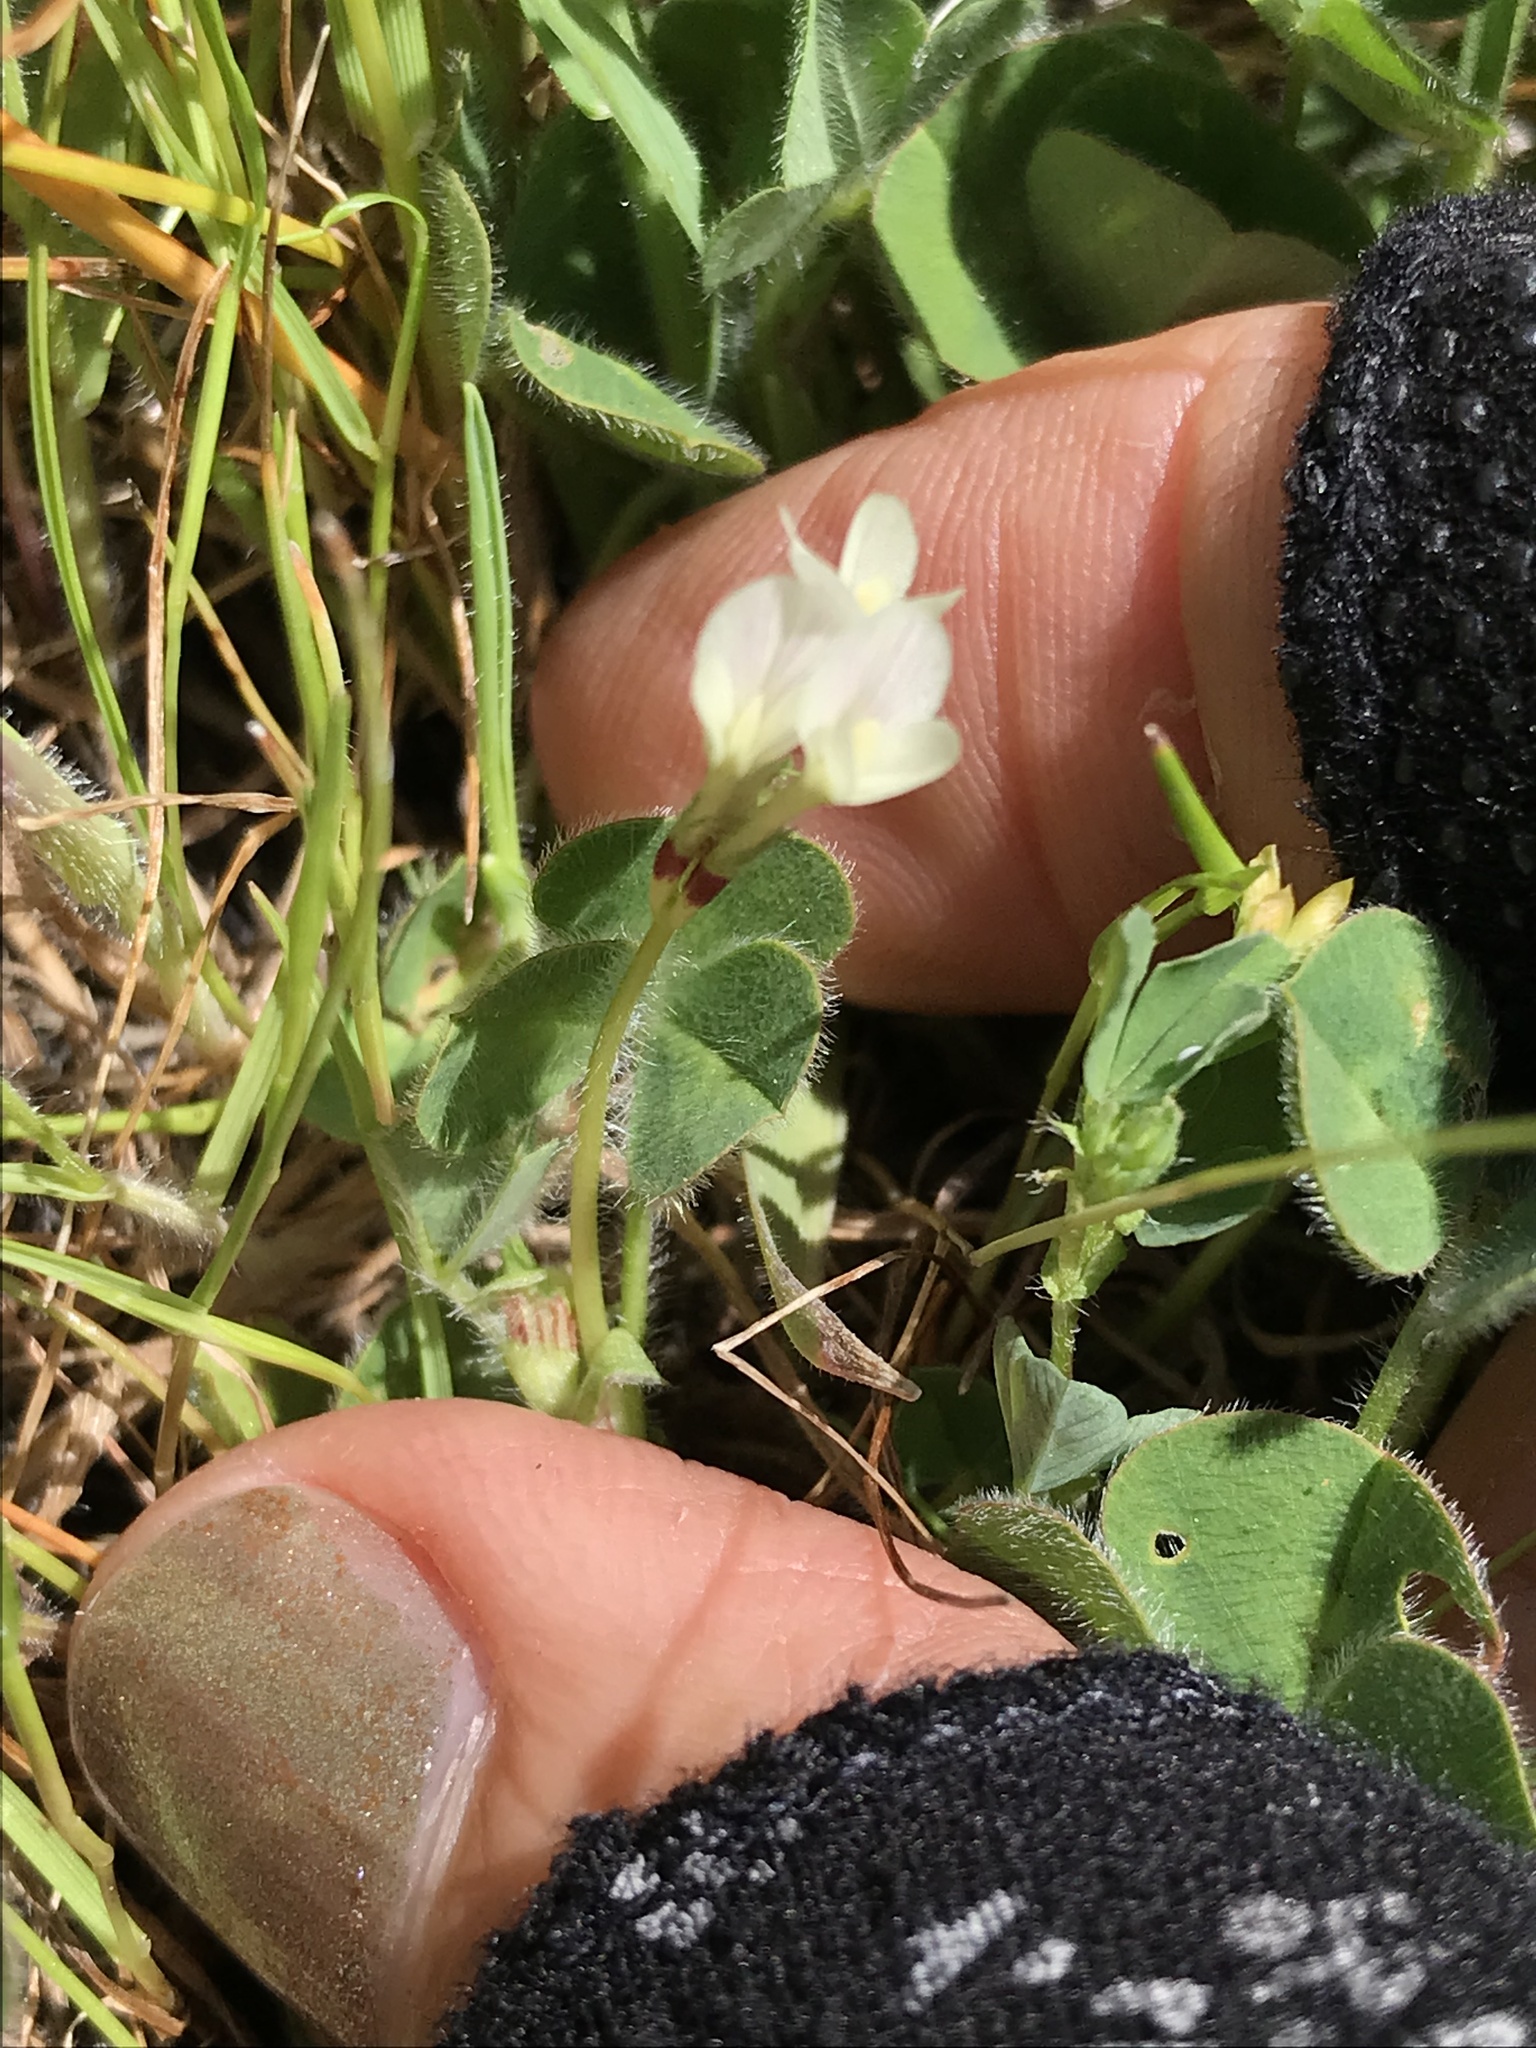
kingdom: Plantae
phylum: Tracheophyta
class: Magnoliopsida
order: Fabales
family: Fabaceae
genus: Trifolium
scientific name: Trifolium subterraneum
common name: Subterranean clover
